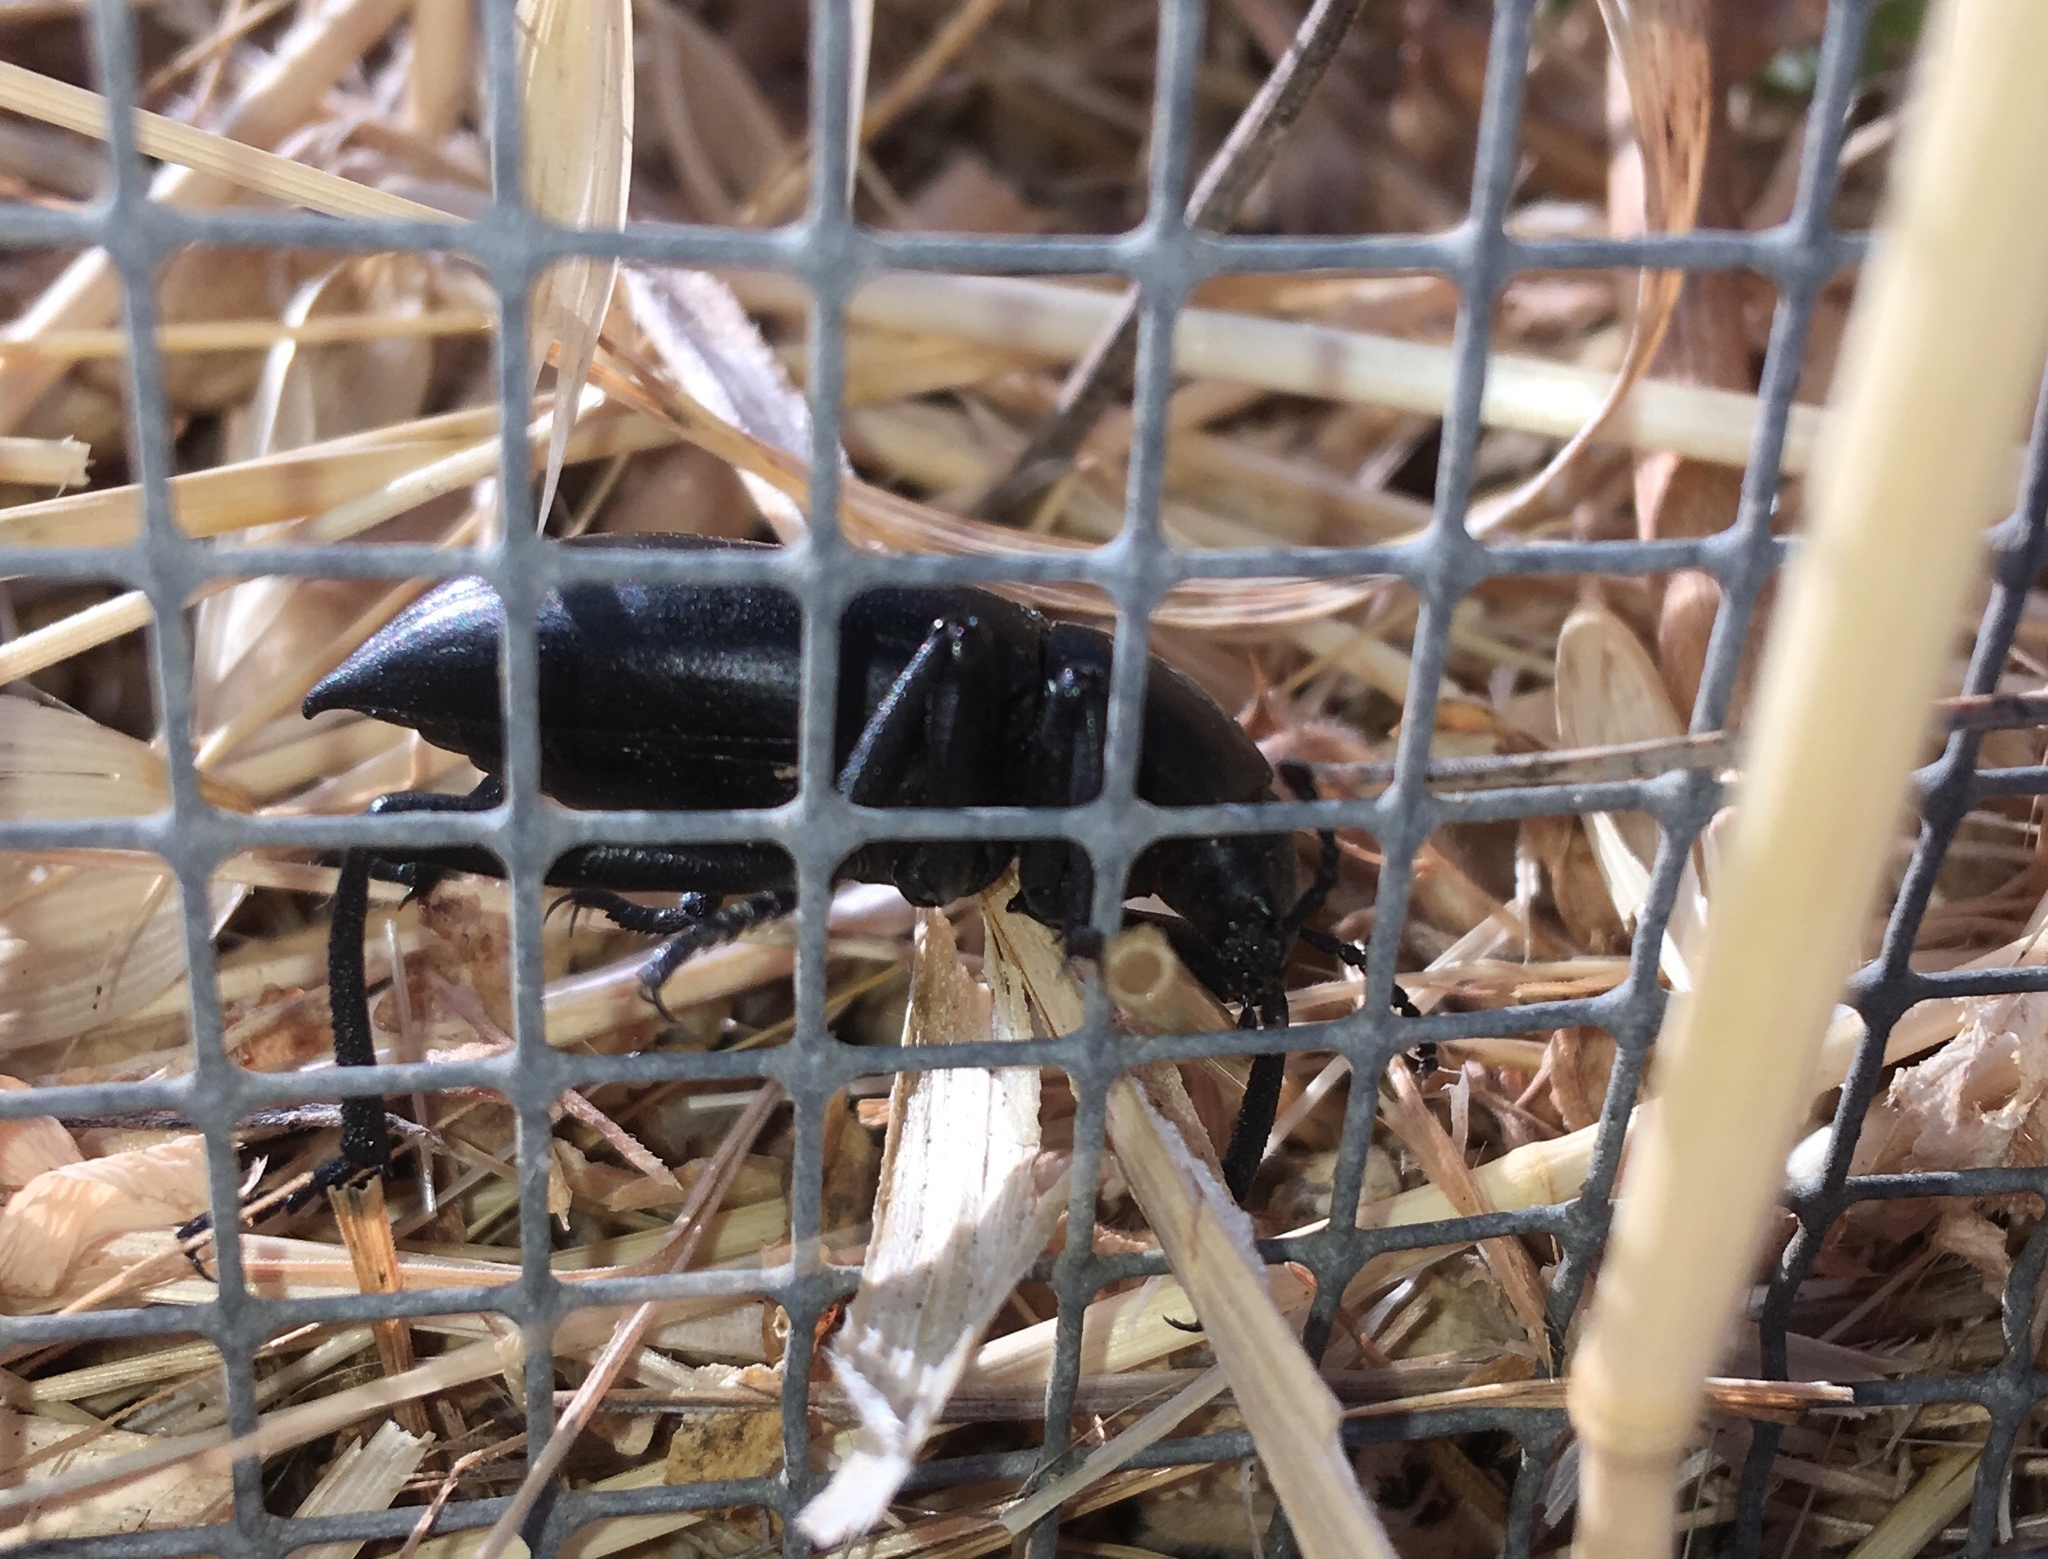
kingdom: Animalia
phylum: Arthropoda
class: Insecta
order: Coleoptera
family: Tenebrionidae
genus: Eleodes
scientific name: Eleodes acuticauda
